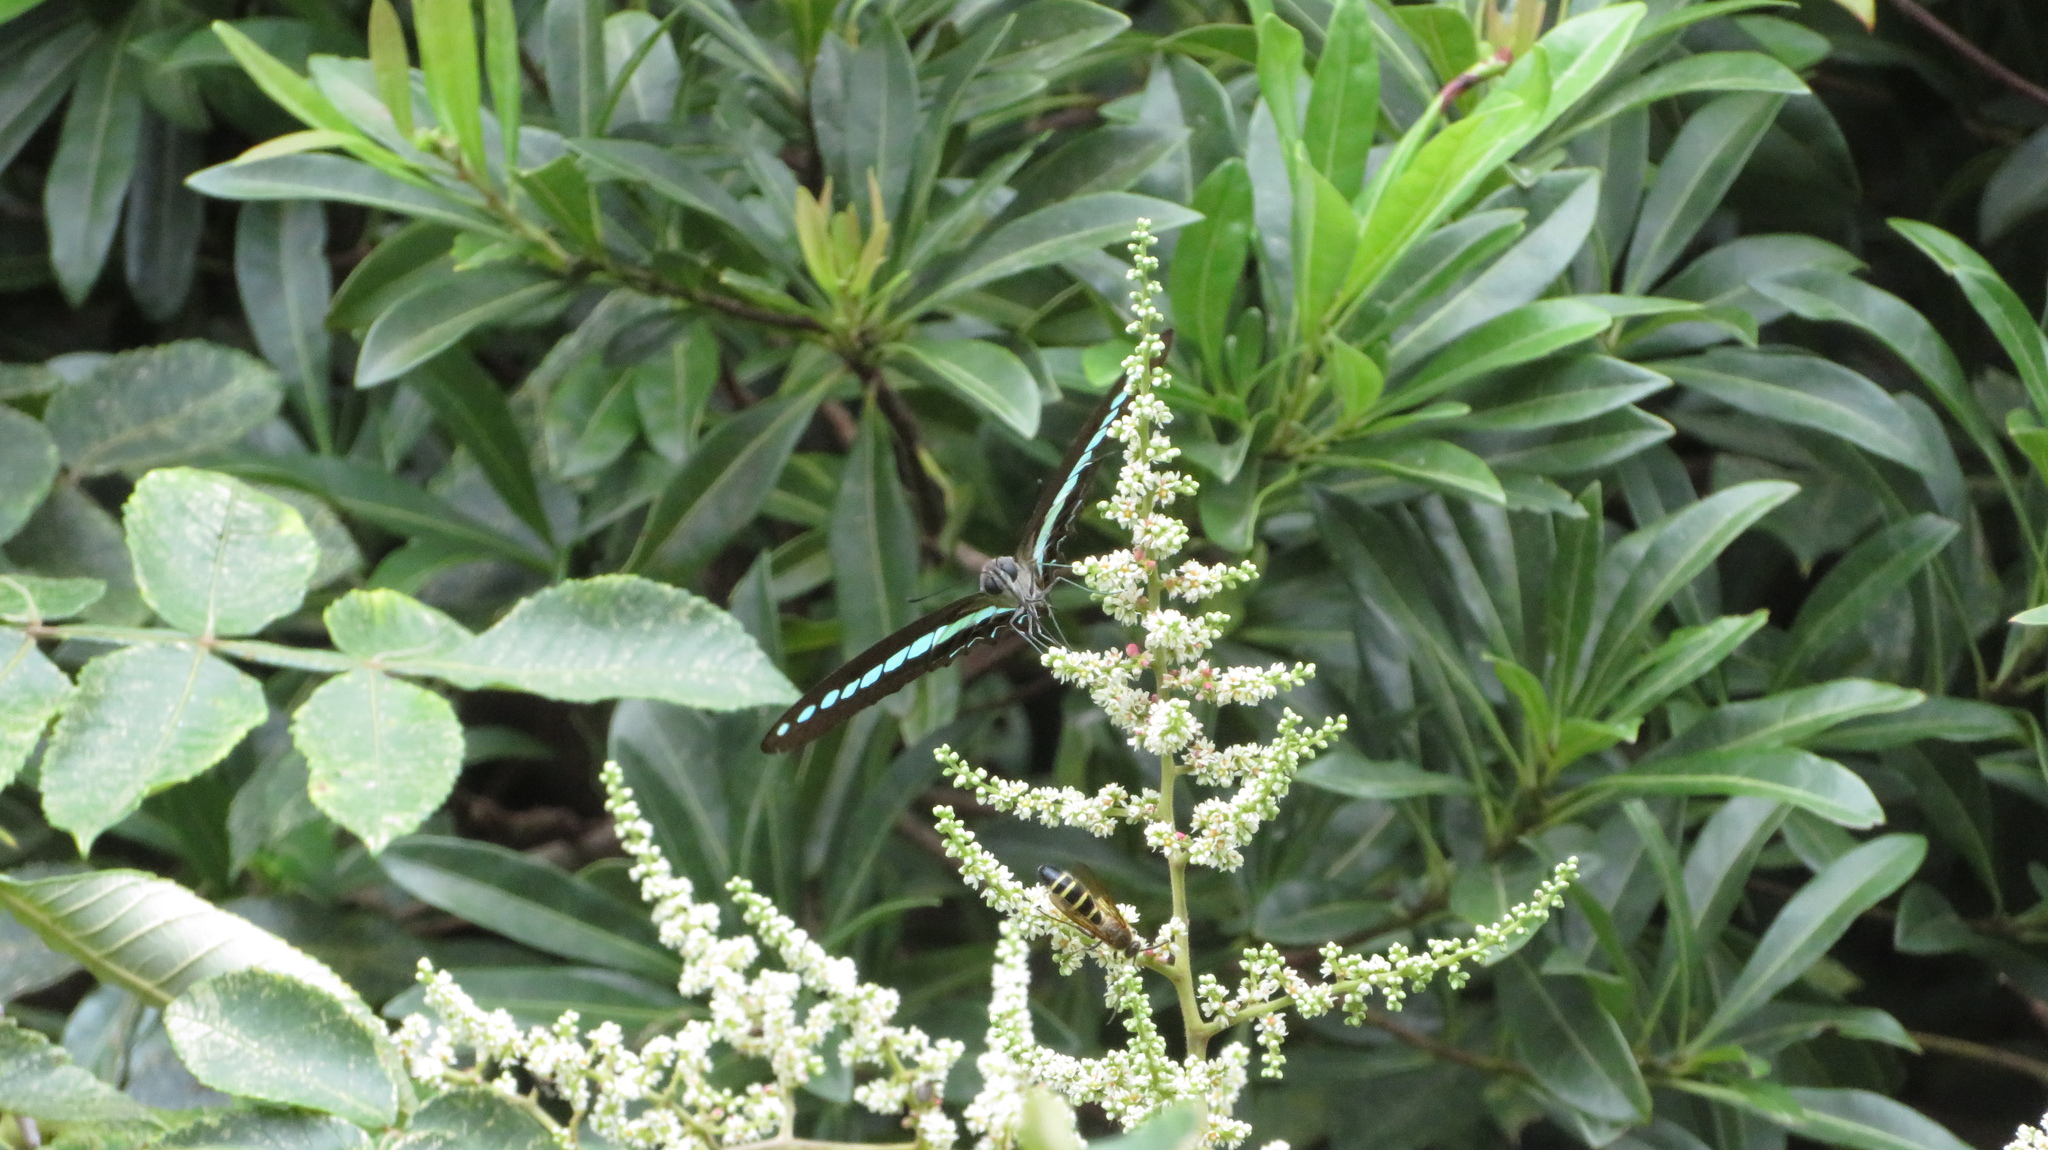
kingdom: Fungi
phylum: Ascomycota
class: Sordariomycetes
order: Microascales
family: Microascaceae
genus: Graphium
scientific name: Graphium sarpedon
